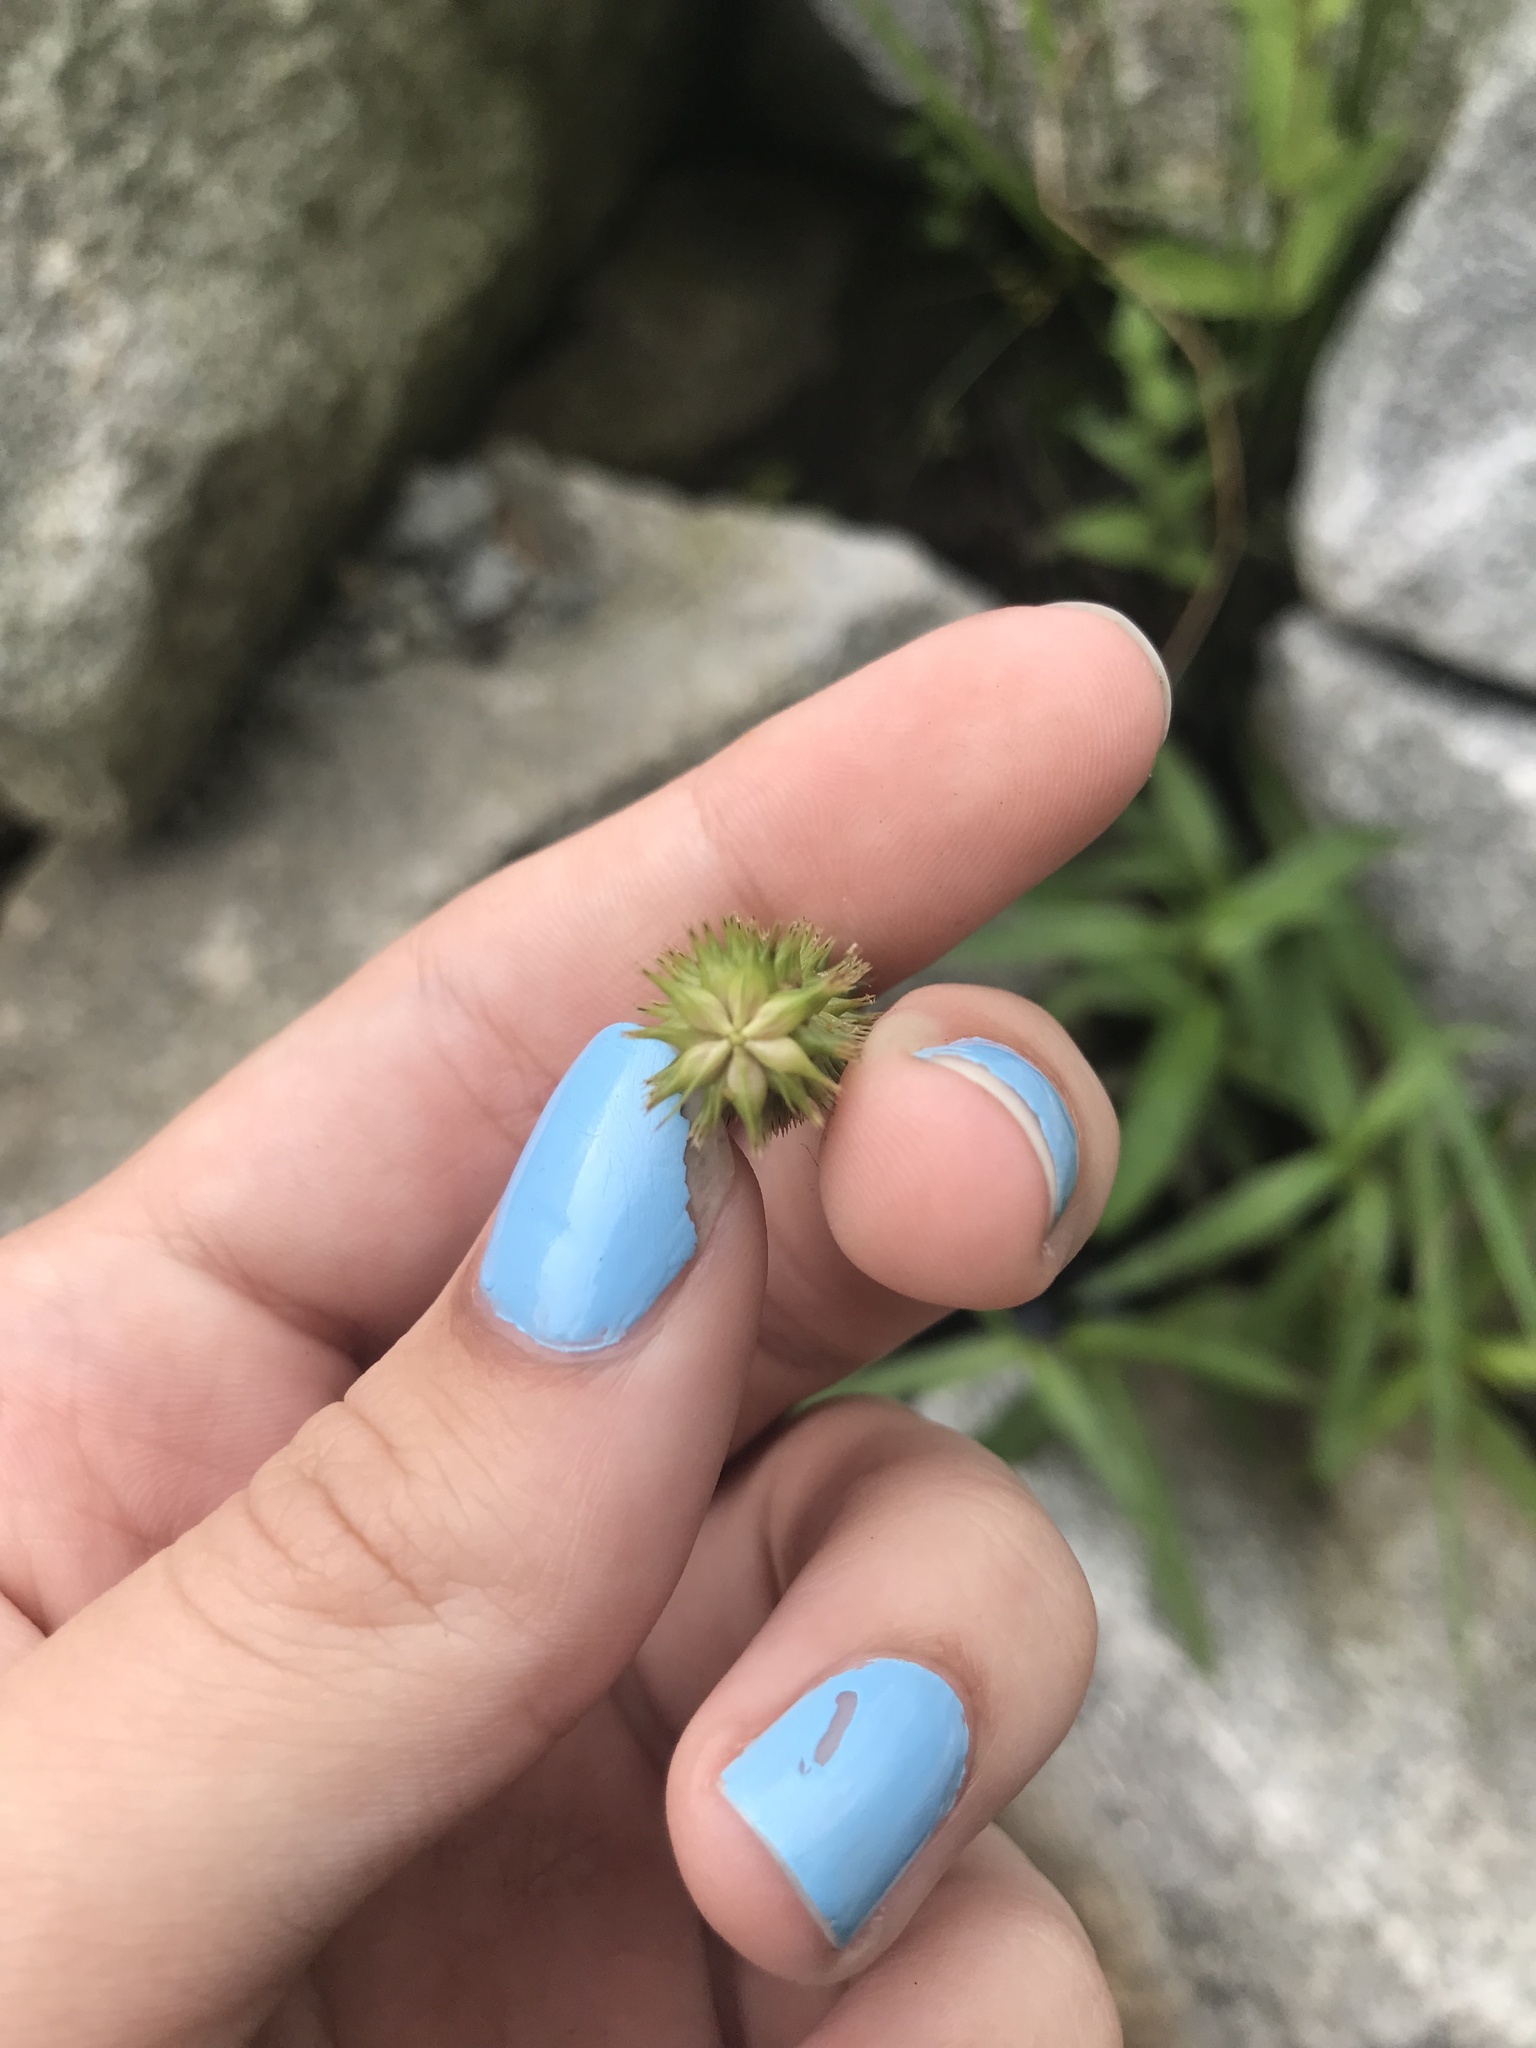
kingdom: Plantae
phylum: Tracheophyta
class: Liliopsida
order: Poales
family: Cyperaceae
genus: Carex
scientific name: Carex pseudocyperus
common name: Cyperus sedge
